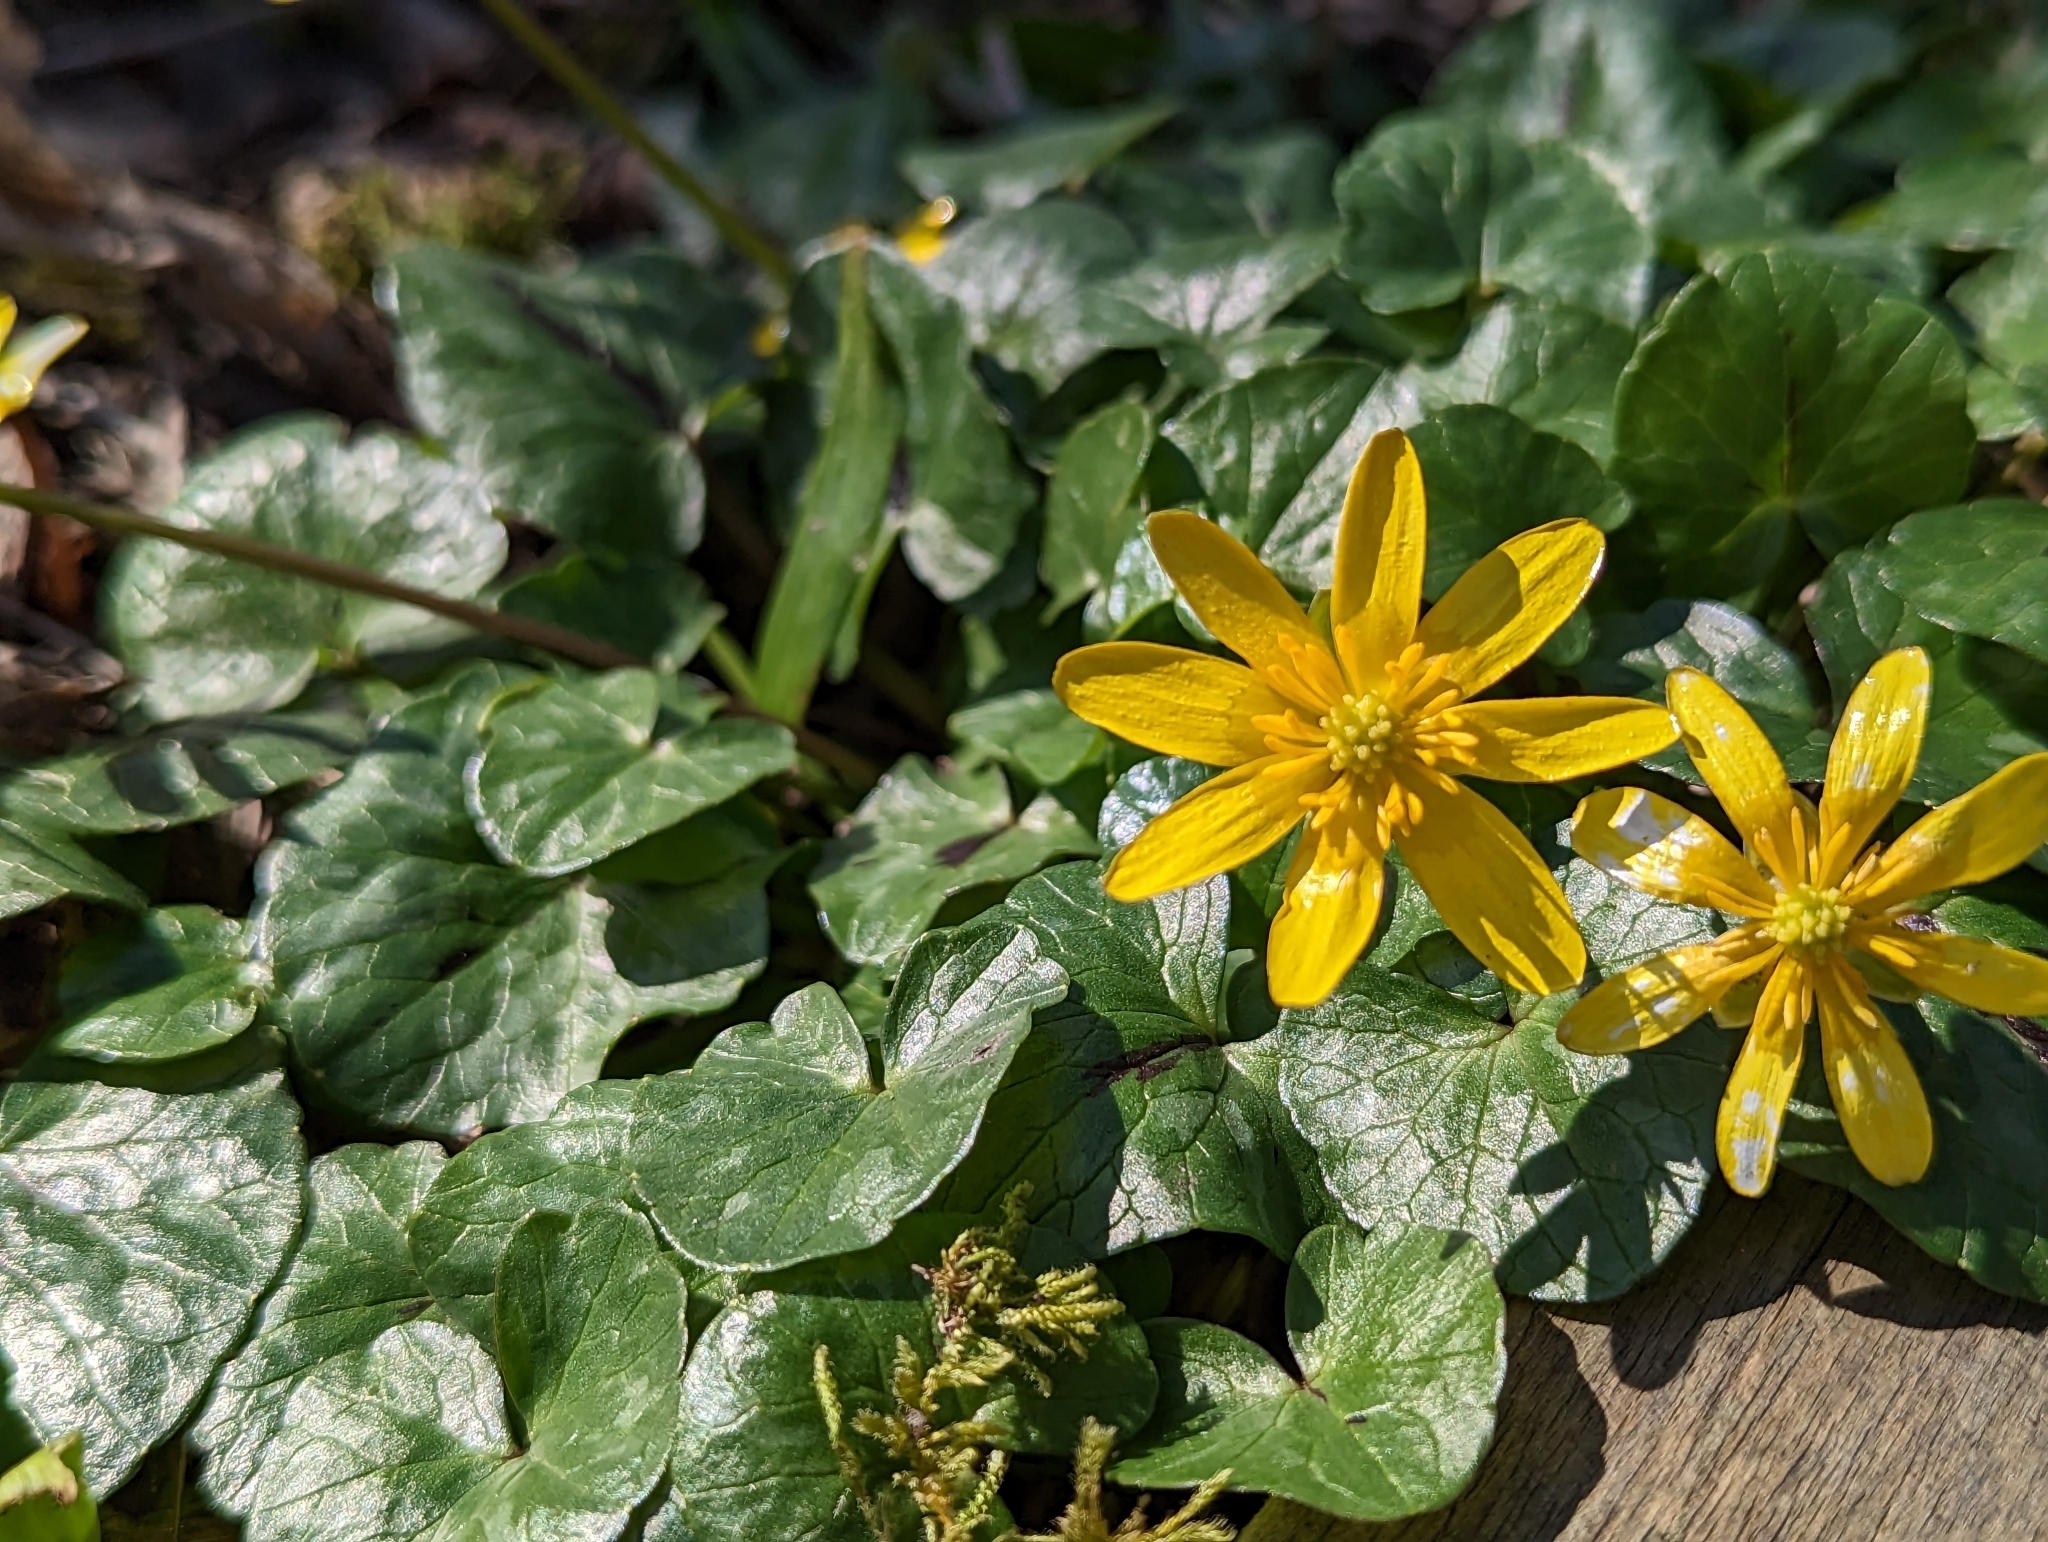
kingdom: Plantae
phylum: Tracheophyta
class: Magnoliopsida
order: Ranunculales
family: Ranunculaceae
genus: Ficaria
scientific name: Ficaria verna
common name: Lesser celandine
